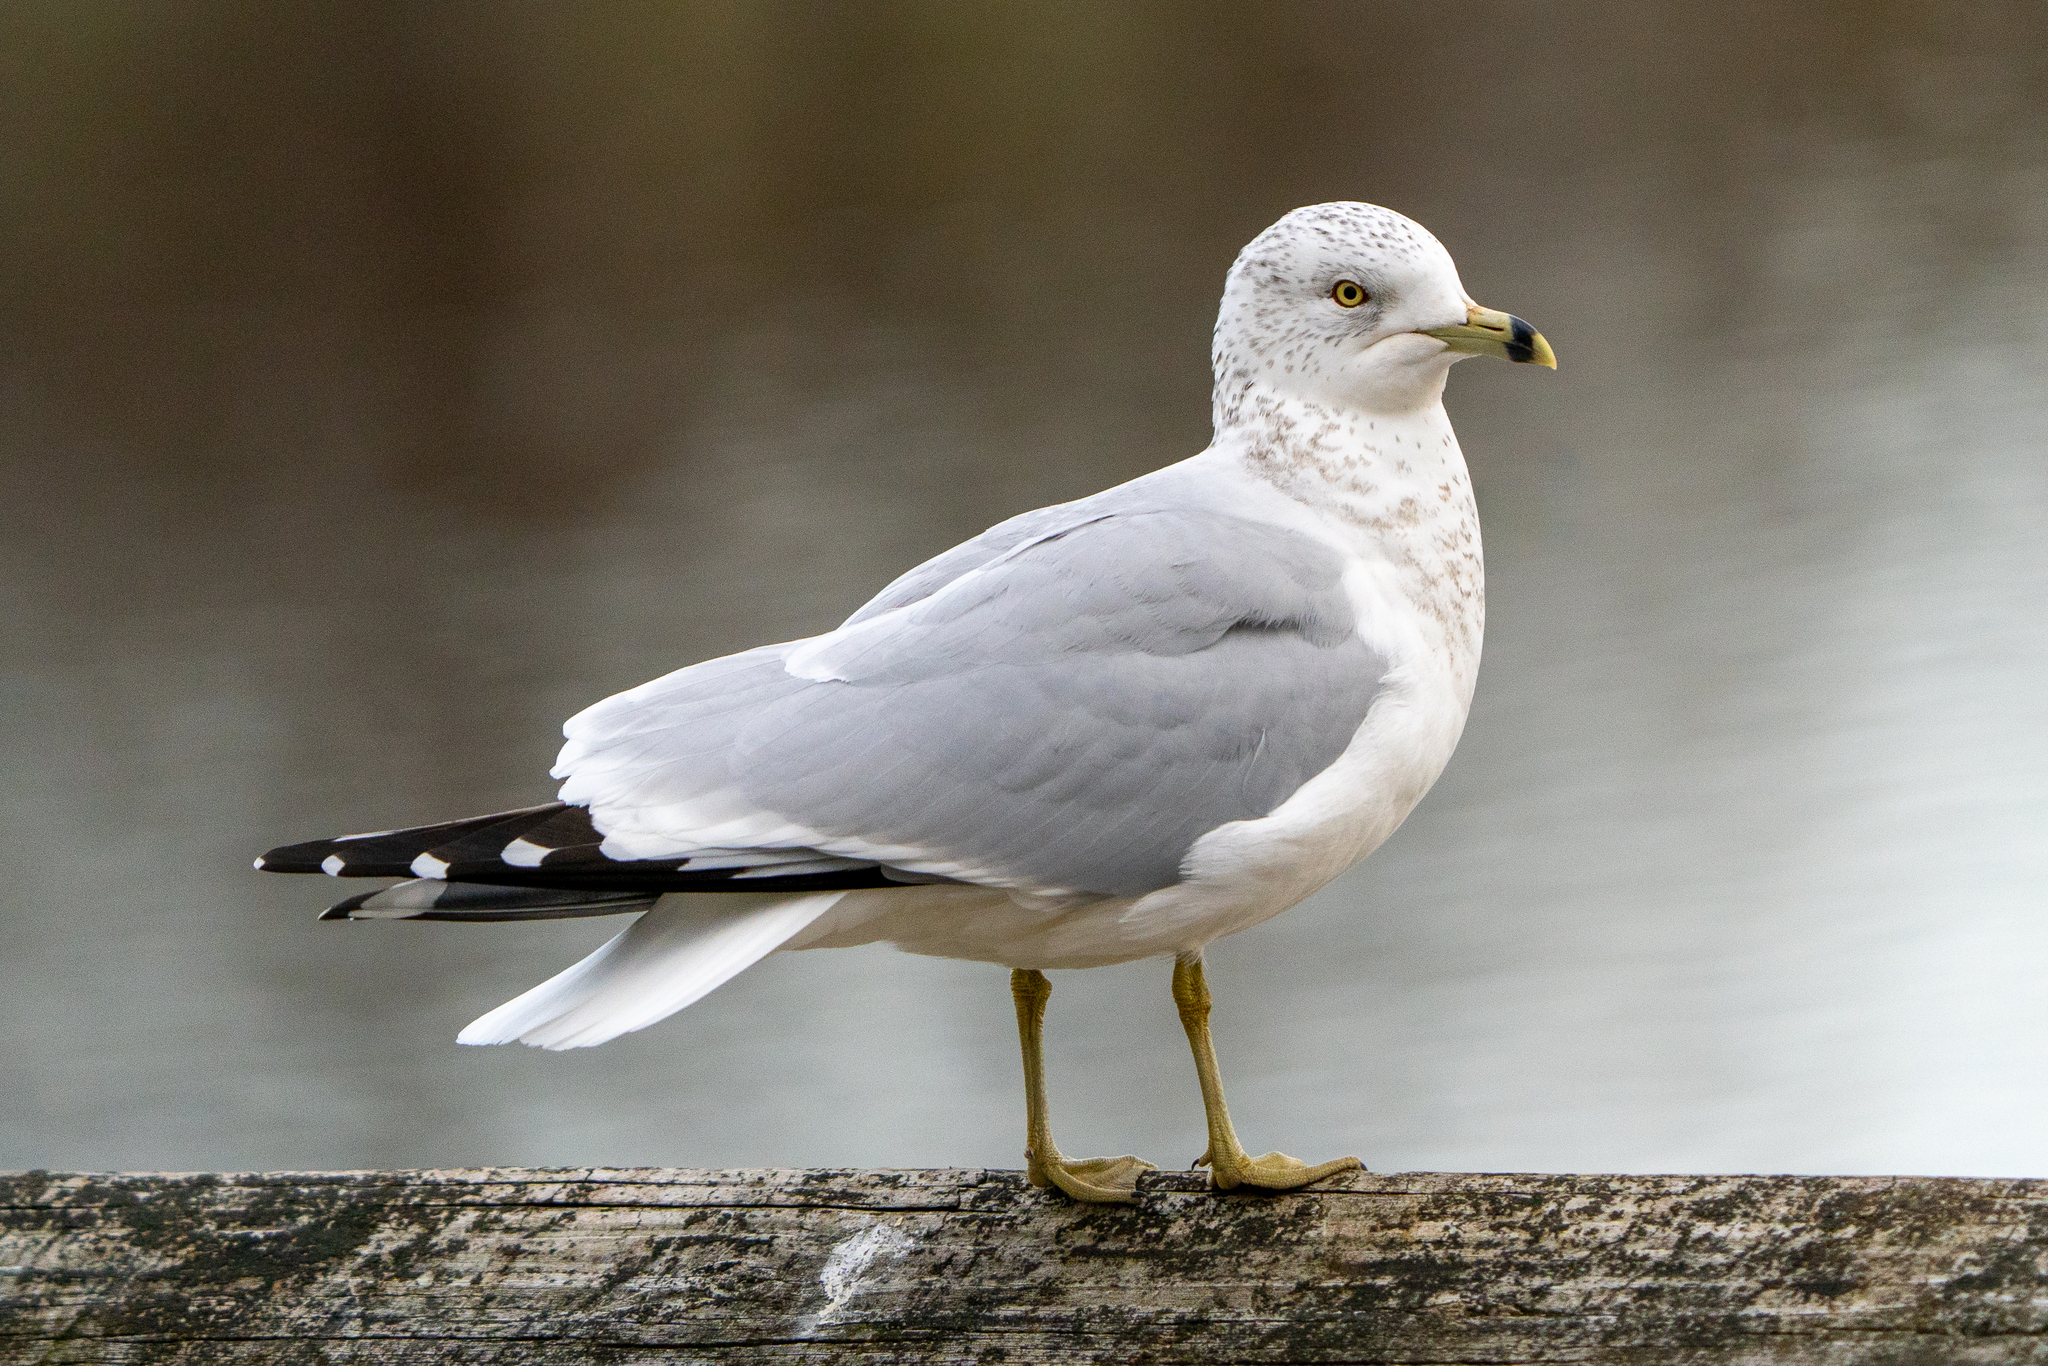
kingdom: Animalia
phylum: Chordata
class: Aves
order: Charadriiformes
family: Laridae
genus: Larus
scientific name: Larus delawarensis
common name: Ring-billed gull
